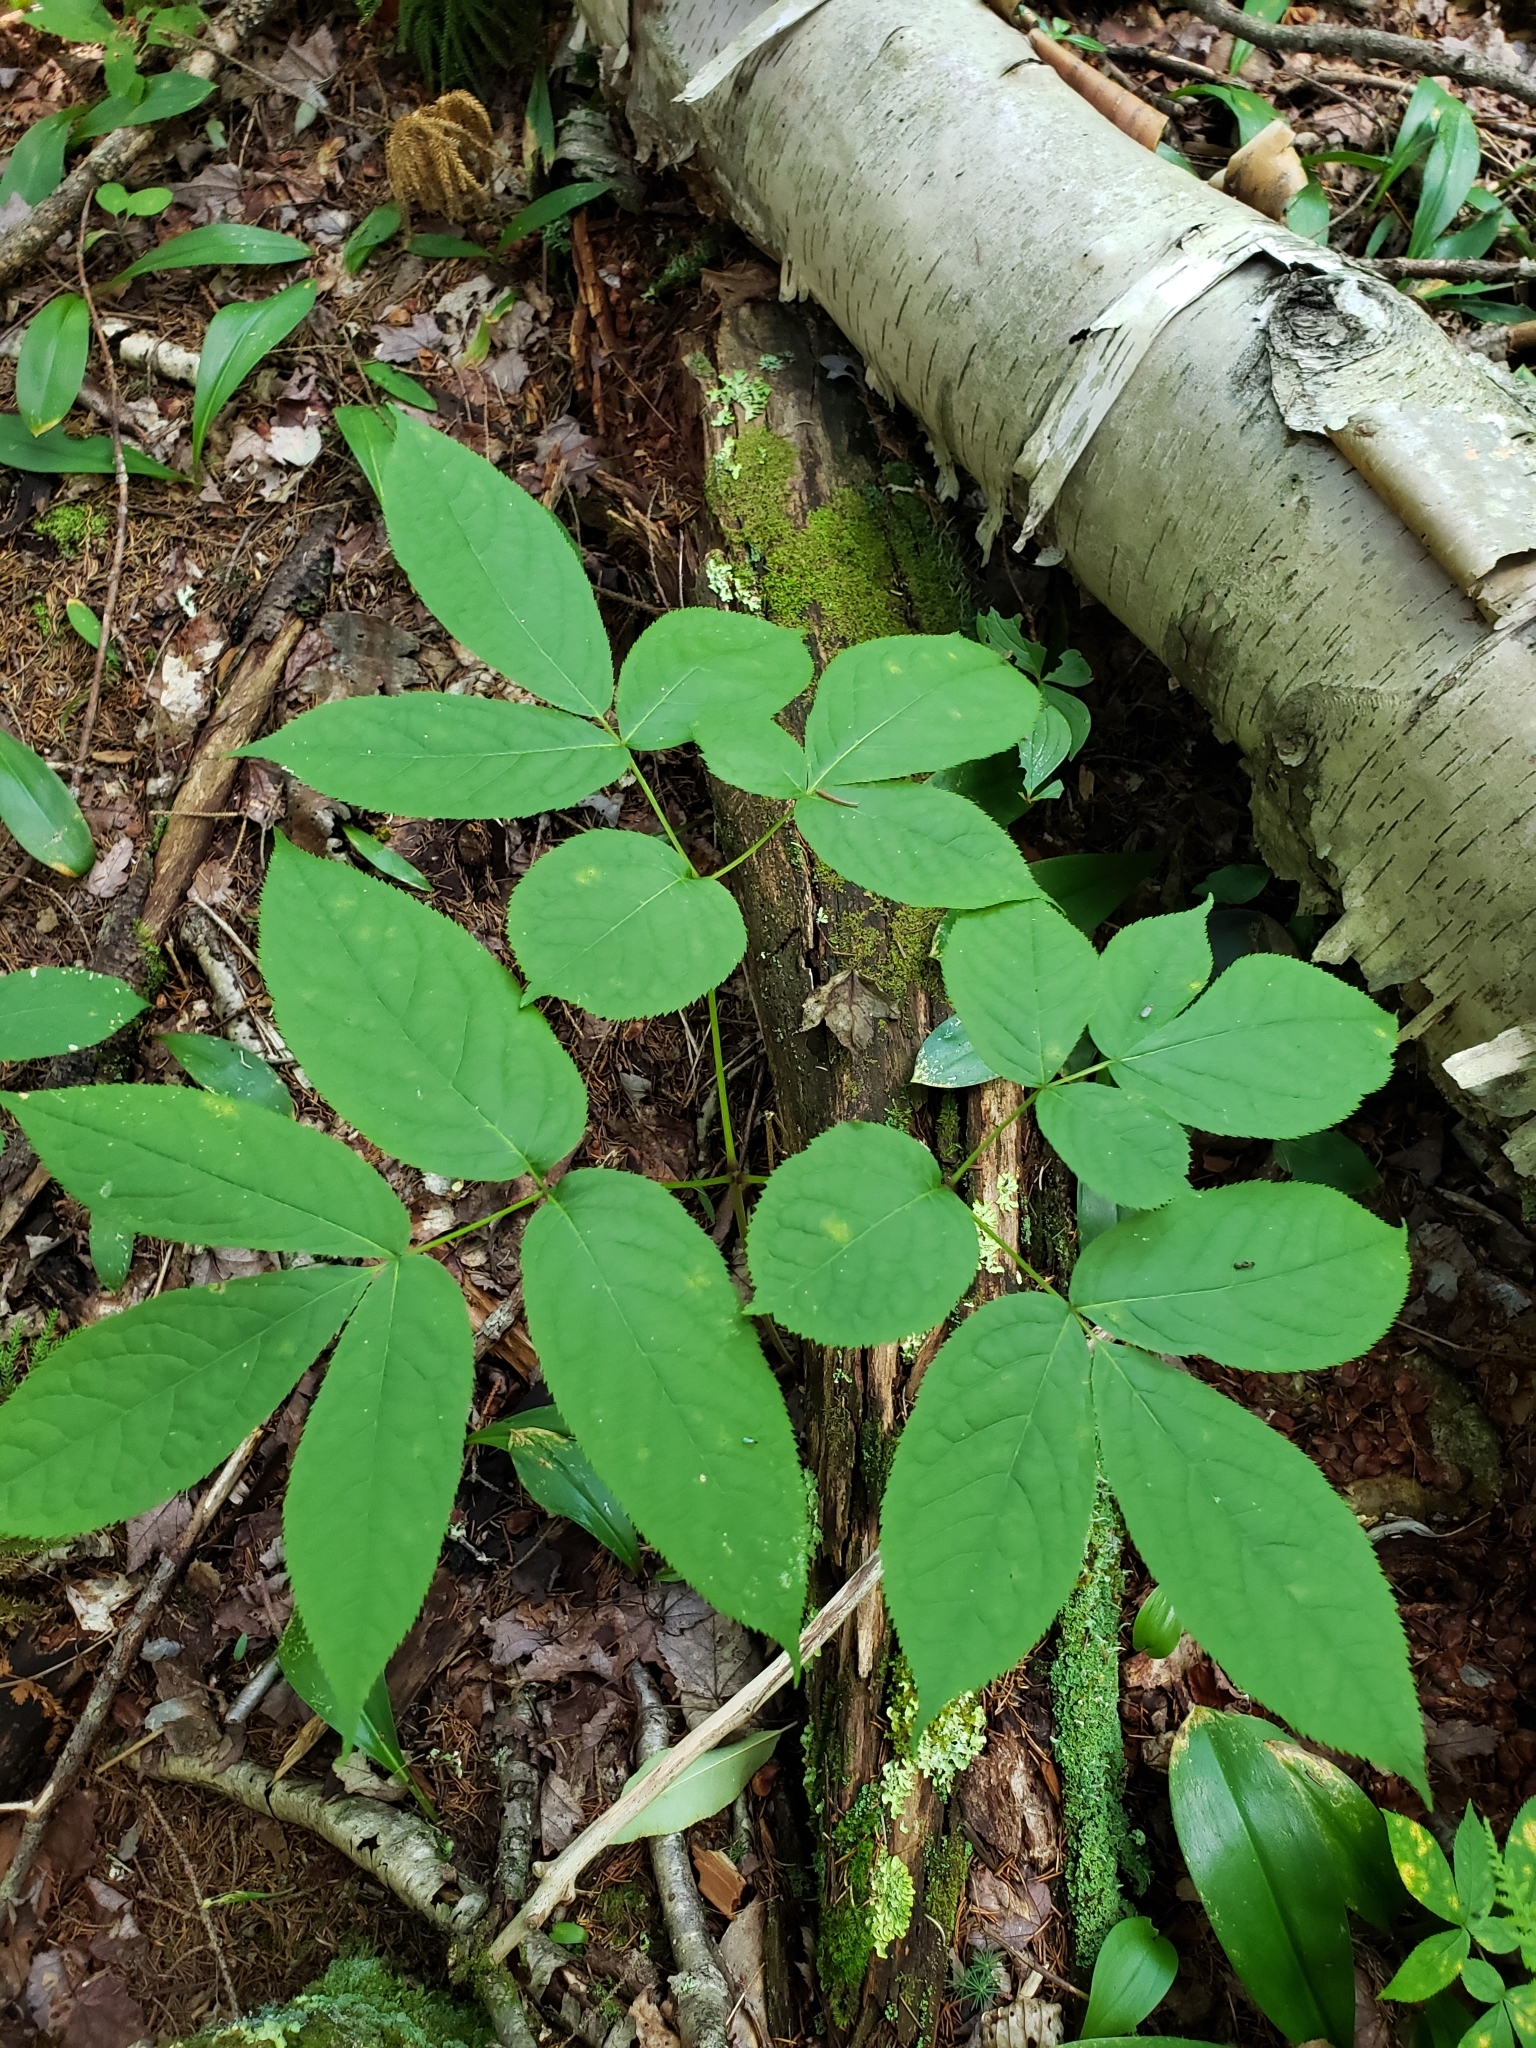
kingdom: Plantae
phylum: Tracheophyta
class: Magnoliopsida
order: Apiales
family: Araliaceae
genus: Aralia
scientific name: Aralia nudicaulis
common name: Wild sarsaparilla
